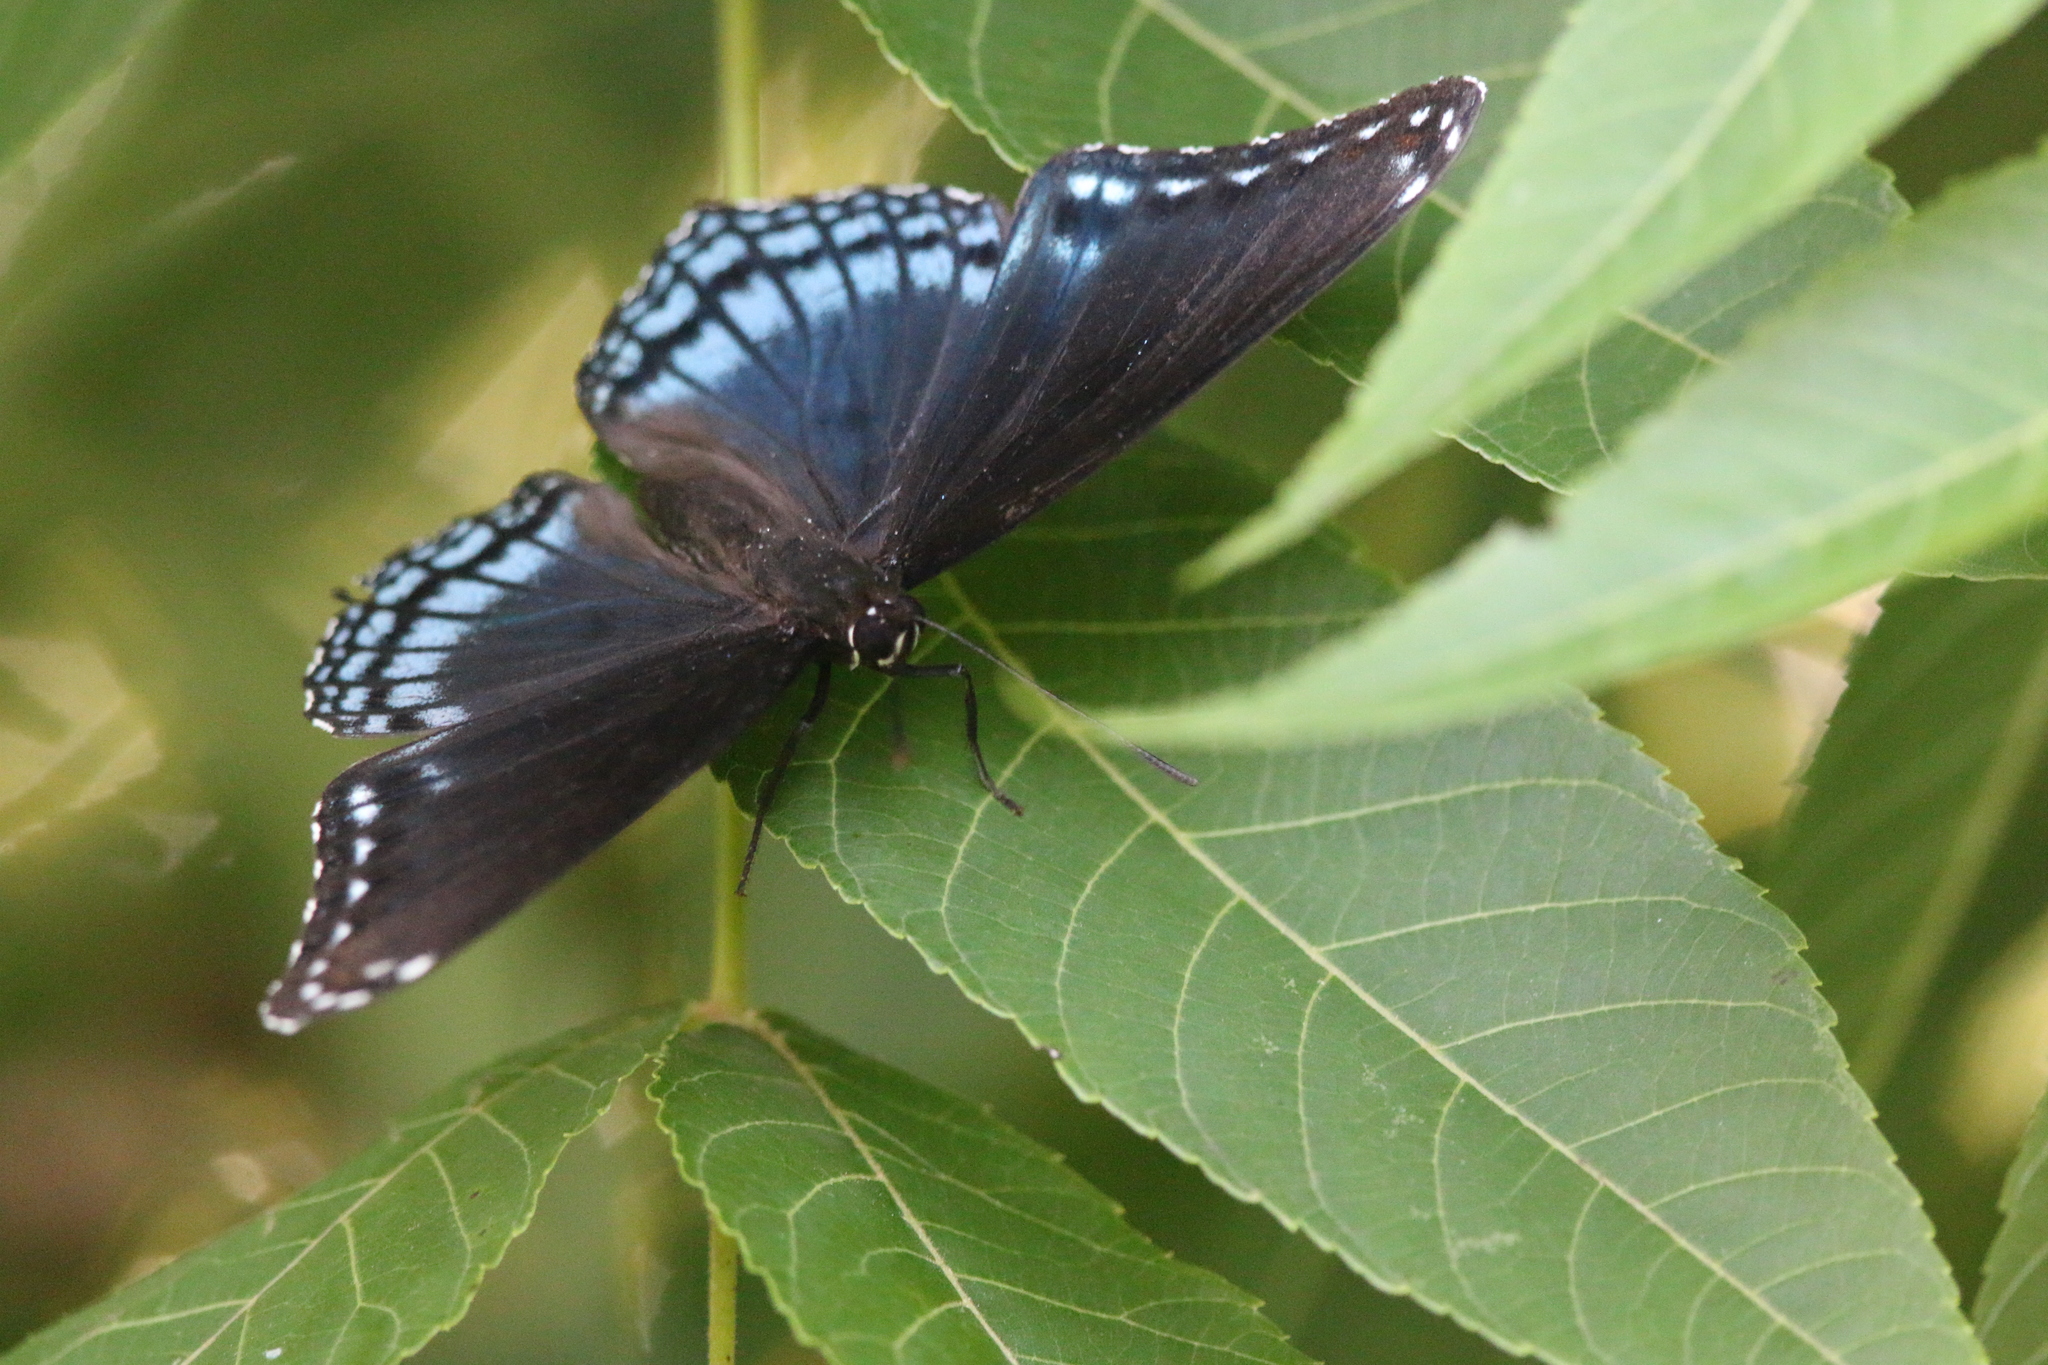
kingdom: Animalia
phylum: Arthropoda
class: Insecta
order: Lepidoptera
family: Nymphalidae
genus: Limenitis
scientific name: Limenitis arthemis
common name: Red-spotted admiral
